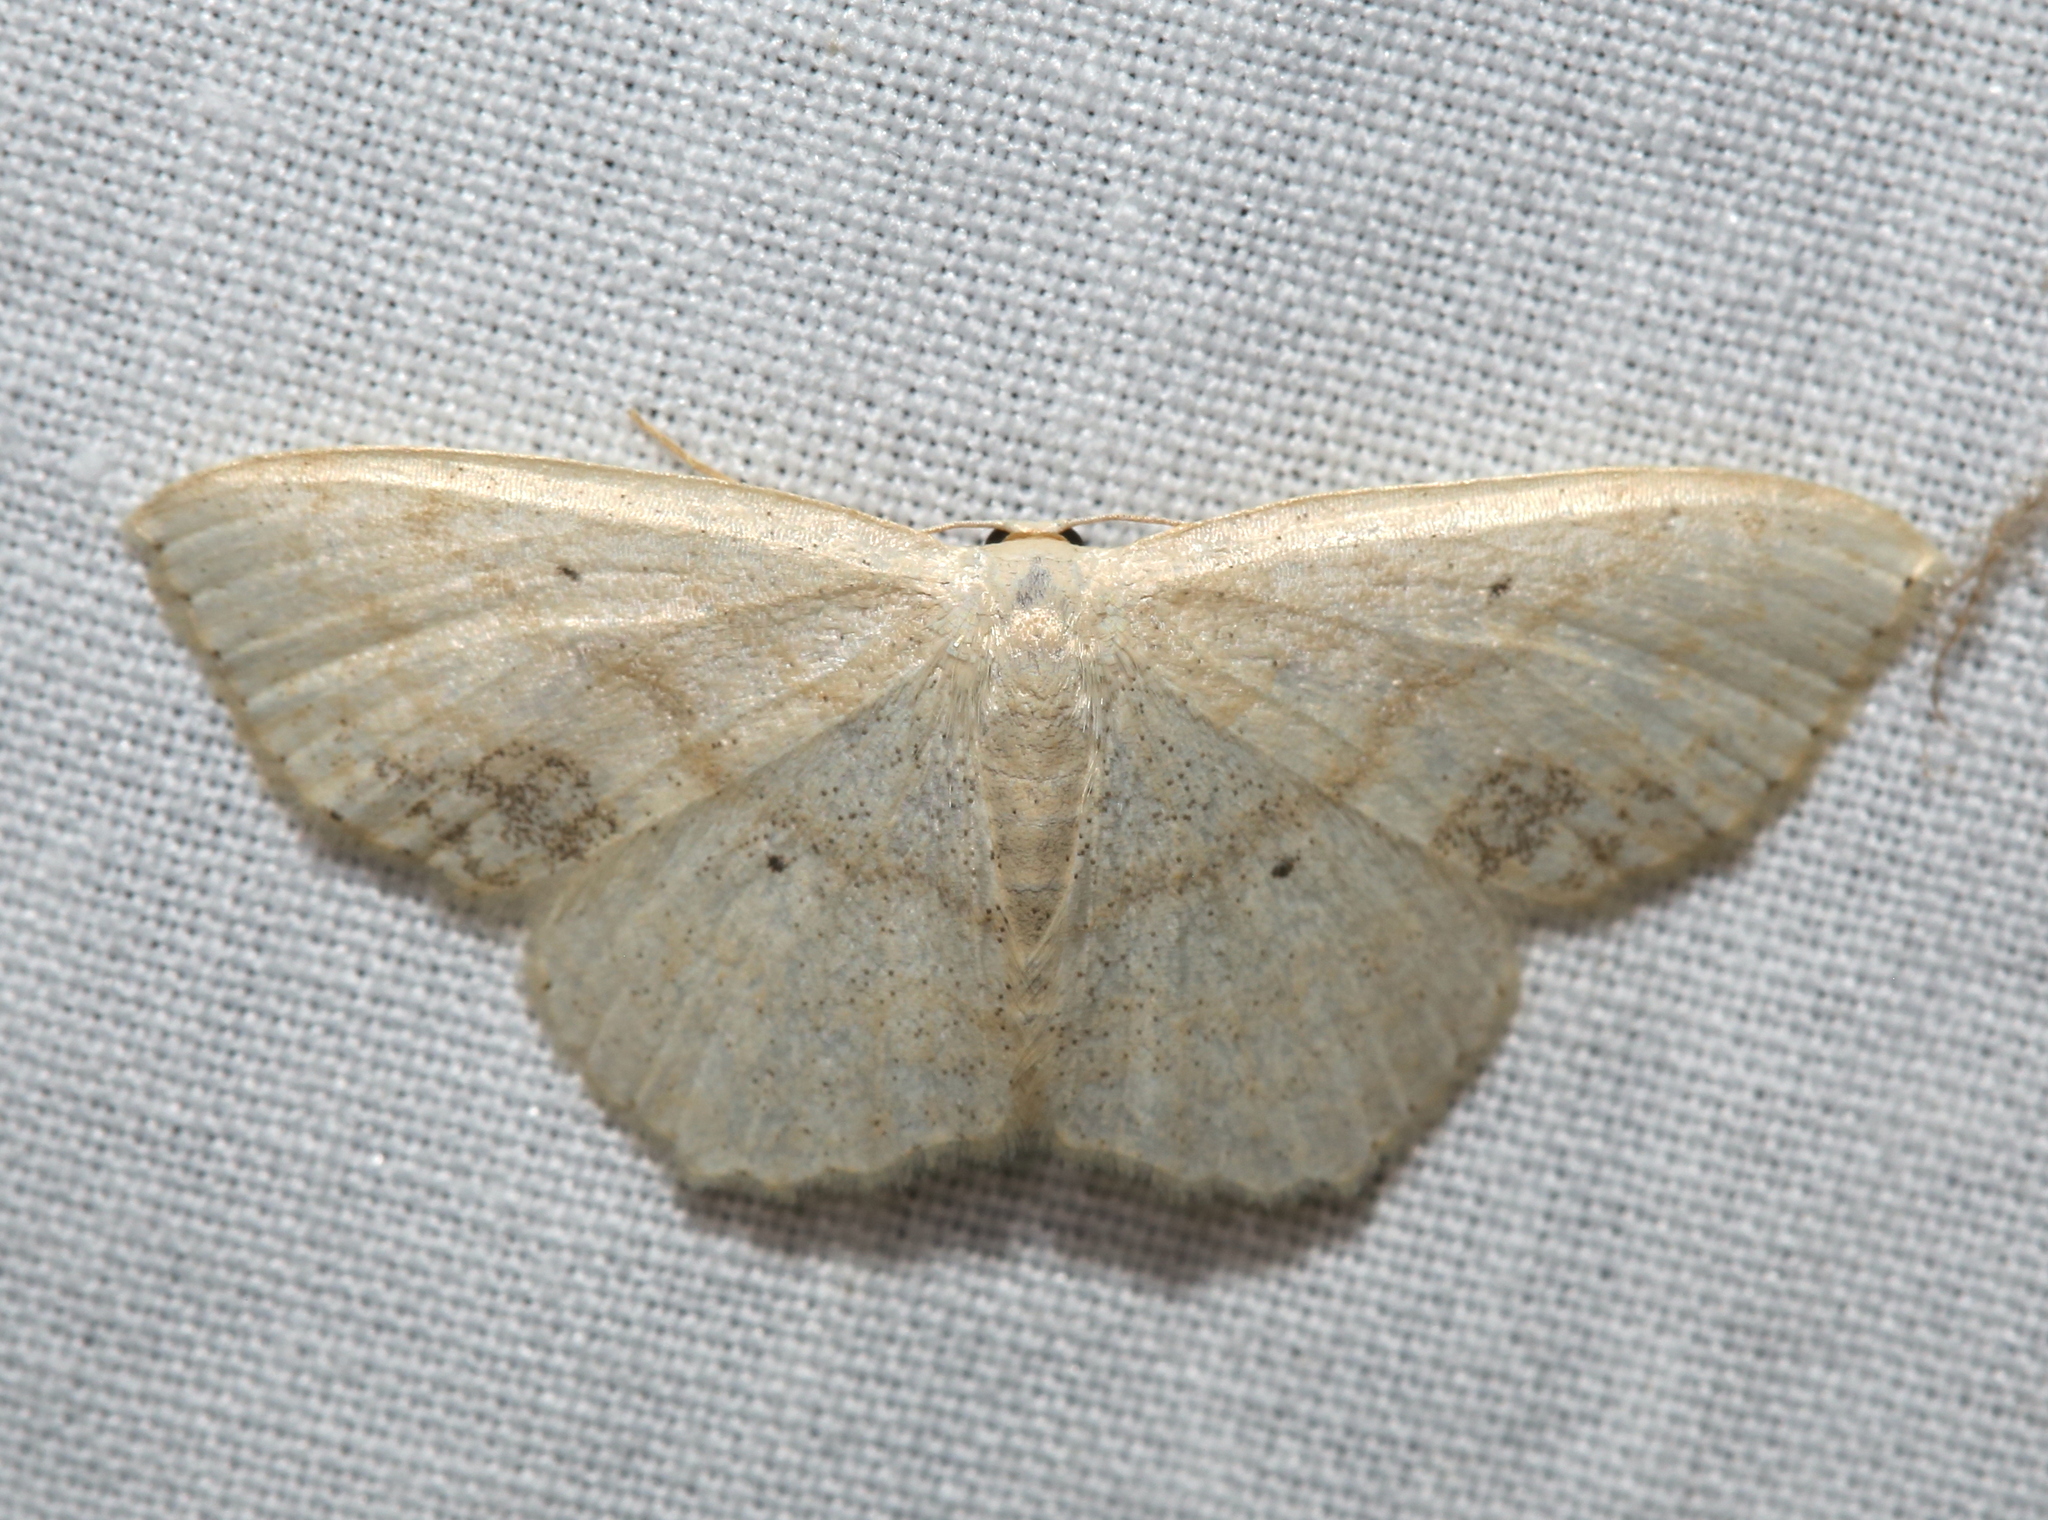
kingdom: Animalia
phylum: Arthropoda
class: Insecta
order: Lepidoptera
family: Geometridae
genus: Scopula
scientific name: Scopula limboundata
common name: Large lace border
